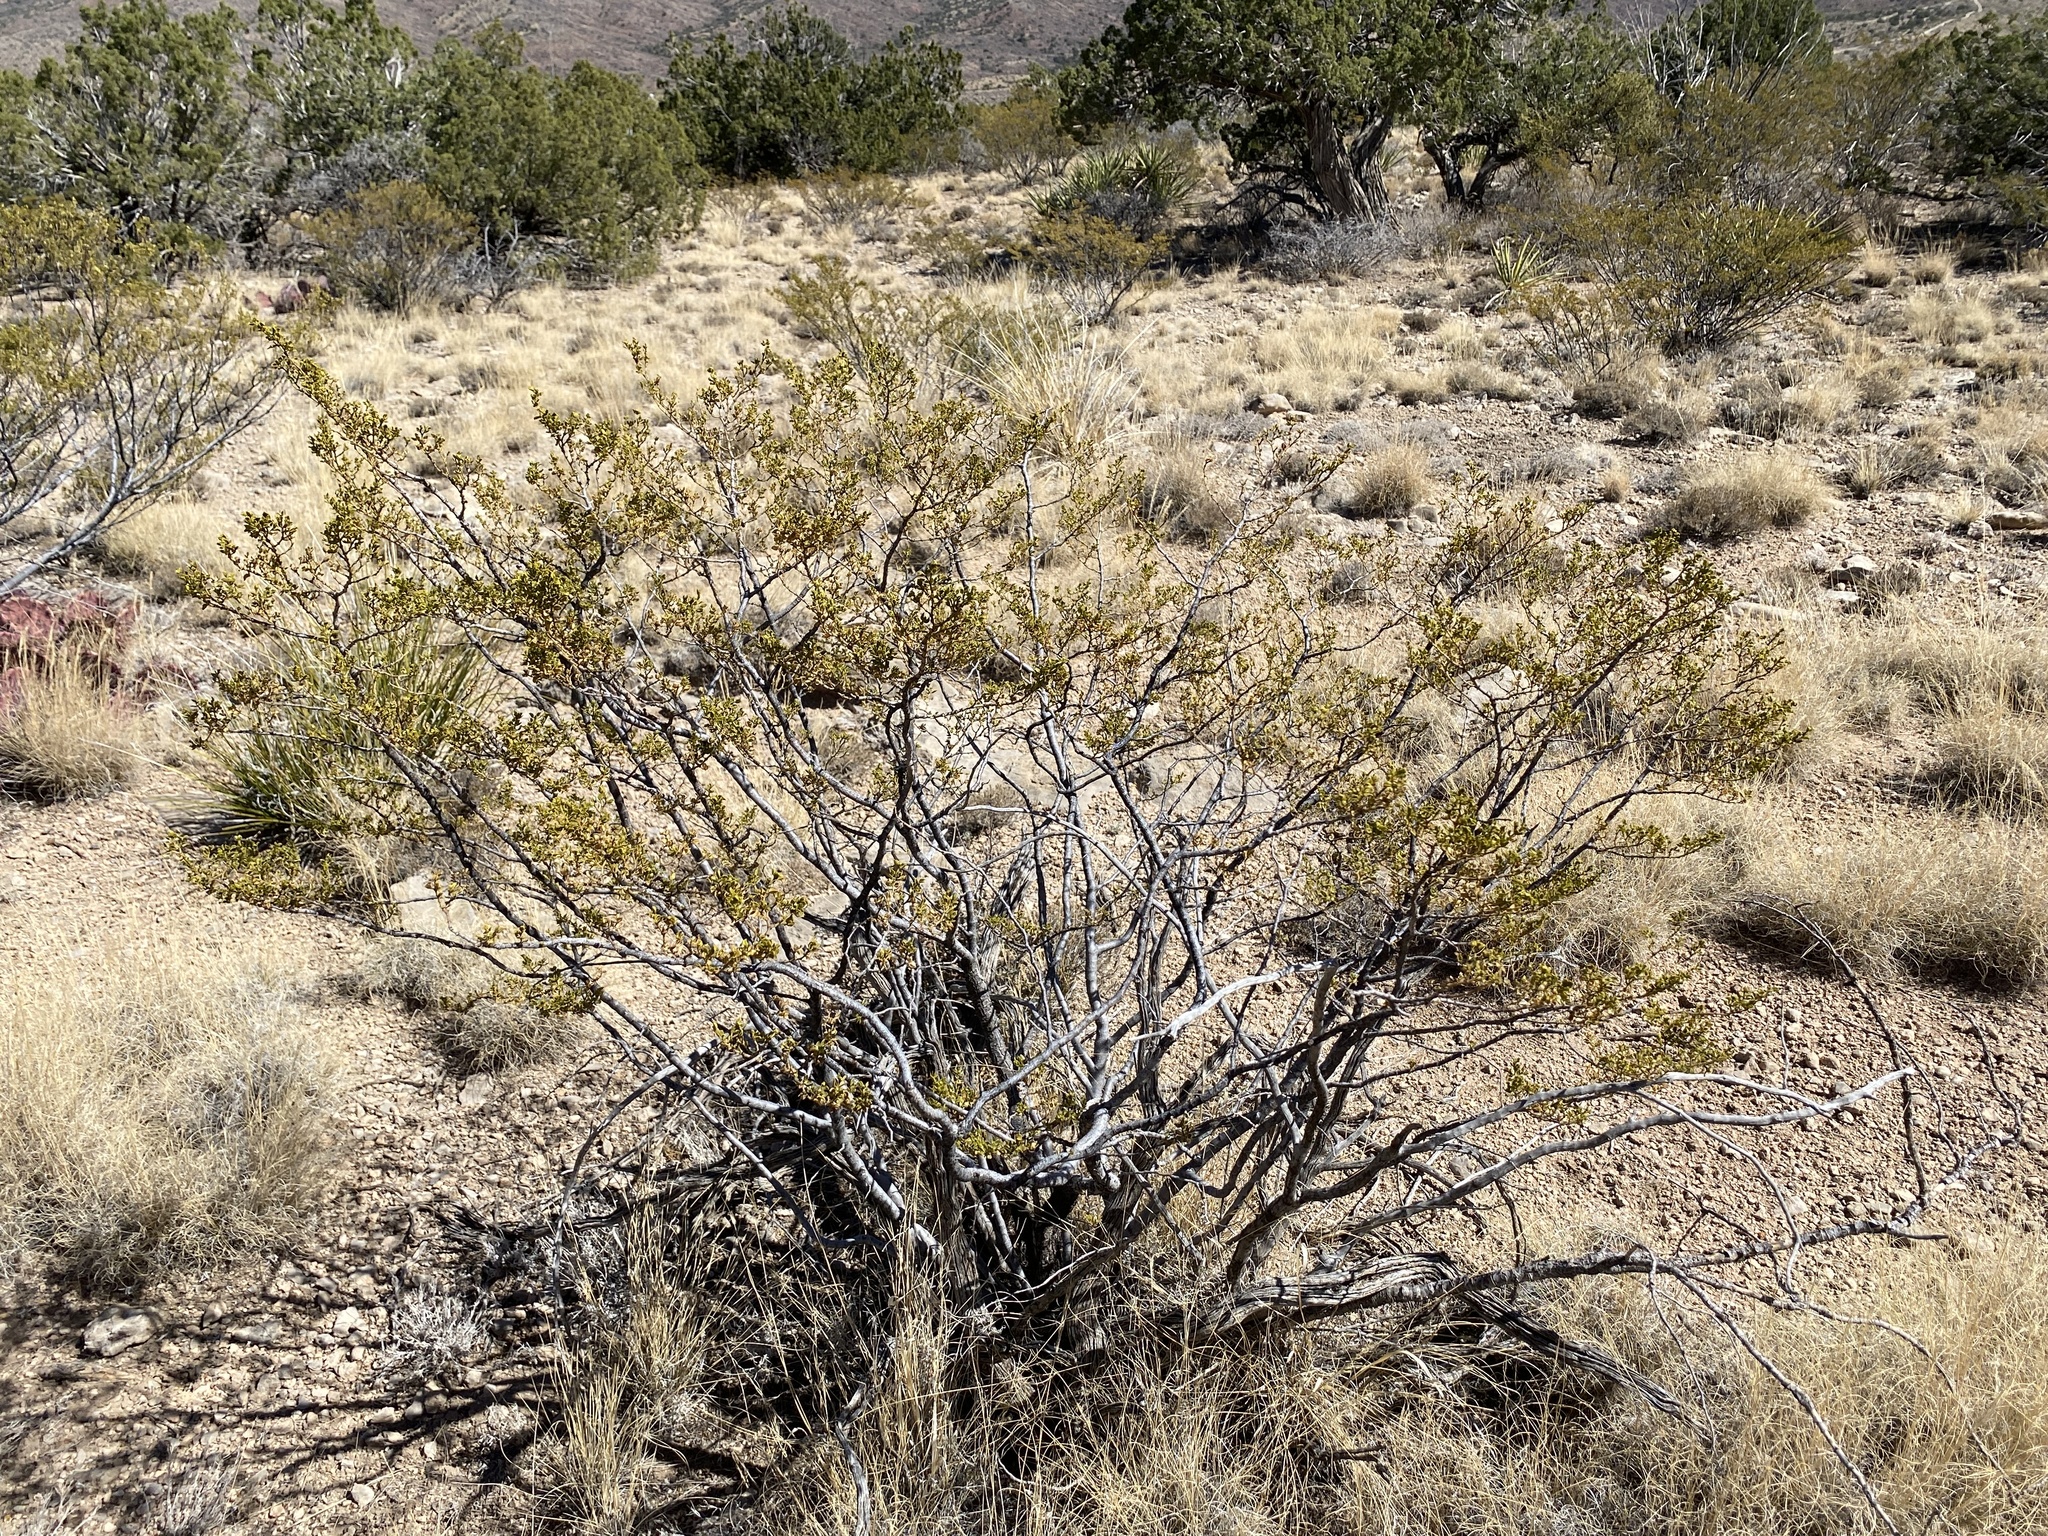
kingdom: Plantae
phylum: Tracheophyta
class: Magnoliopsida
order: Zygophyllales
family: Zygophyllaceae
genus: Larrea
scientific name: Larrea tridentata
